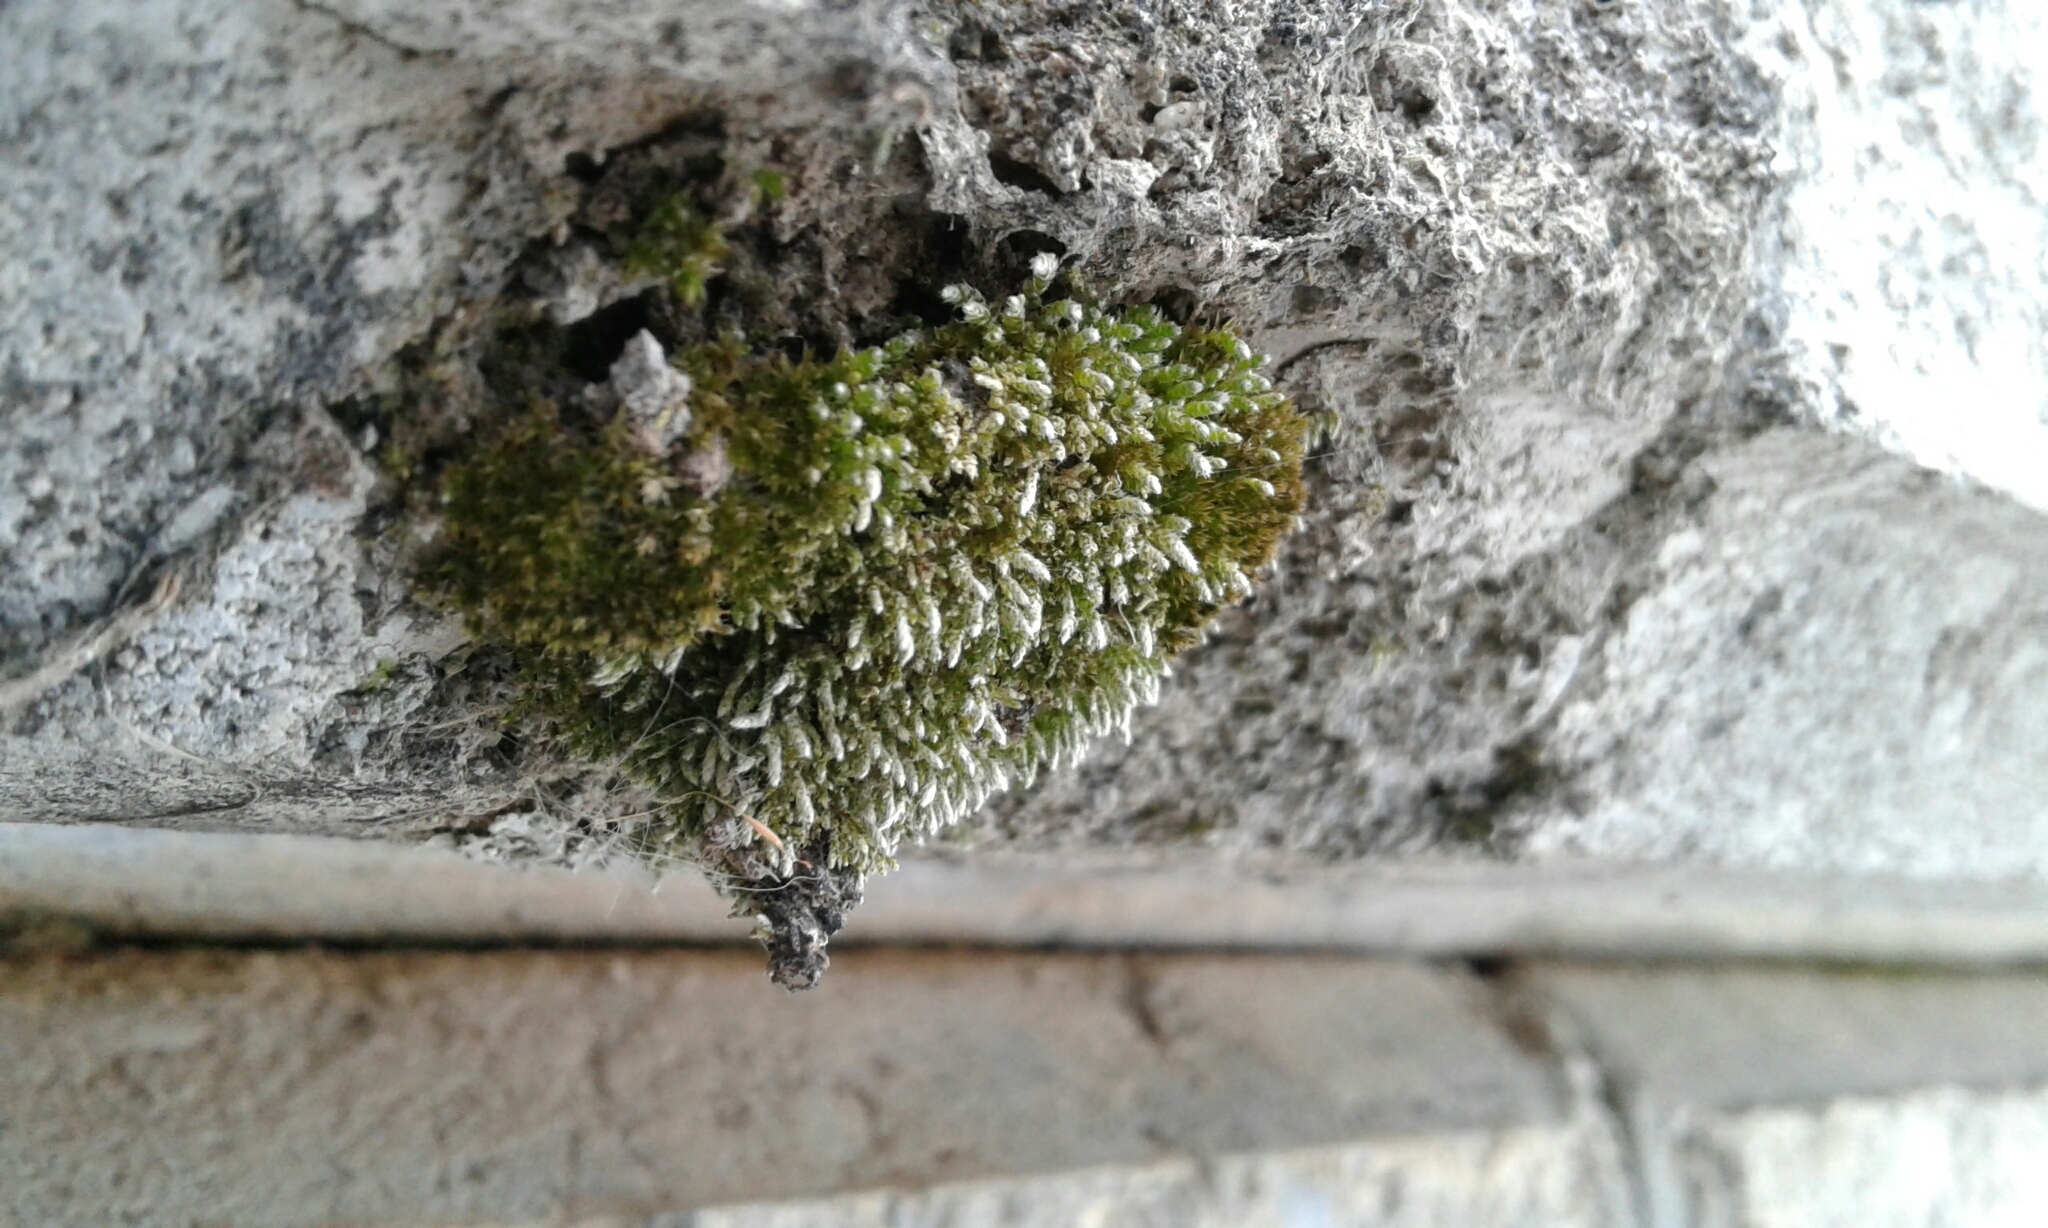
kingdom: Plantae
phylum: Bryophyta
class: Bryopsida
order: Bryales
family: Bryaceae
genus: Bryum
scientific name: Bryum argenteum
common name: Silver-moss
